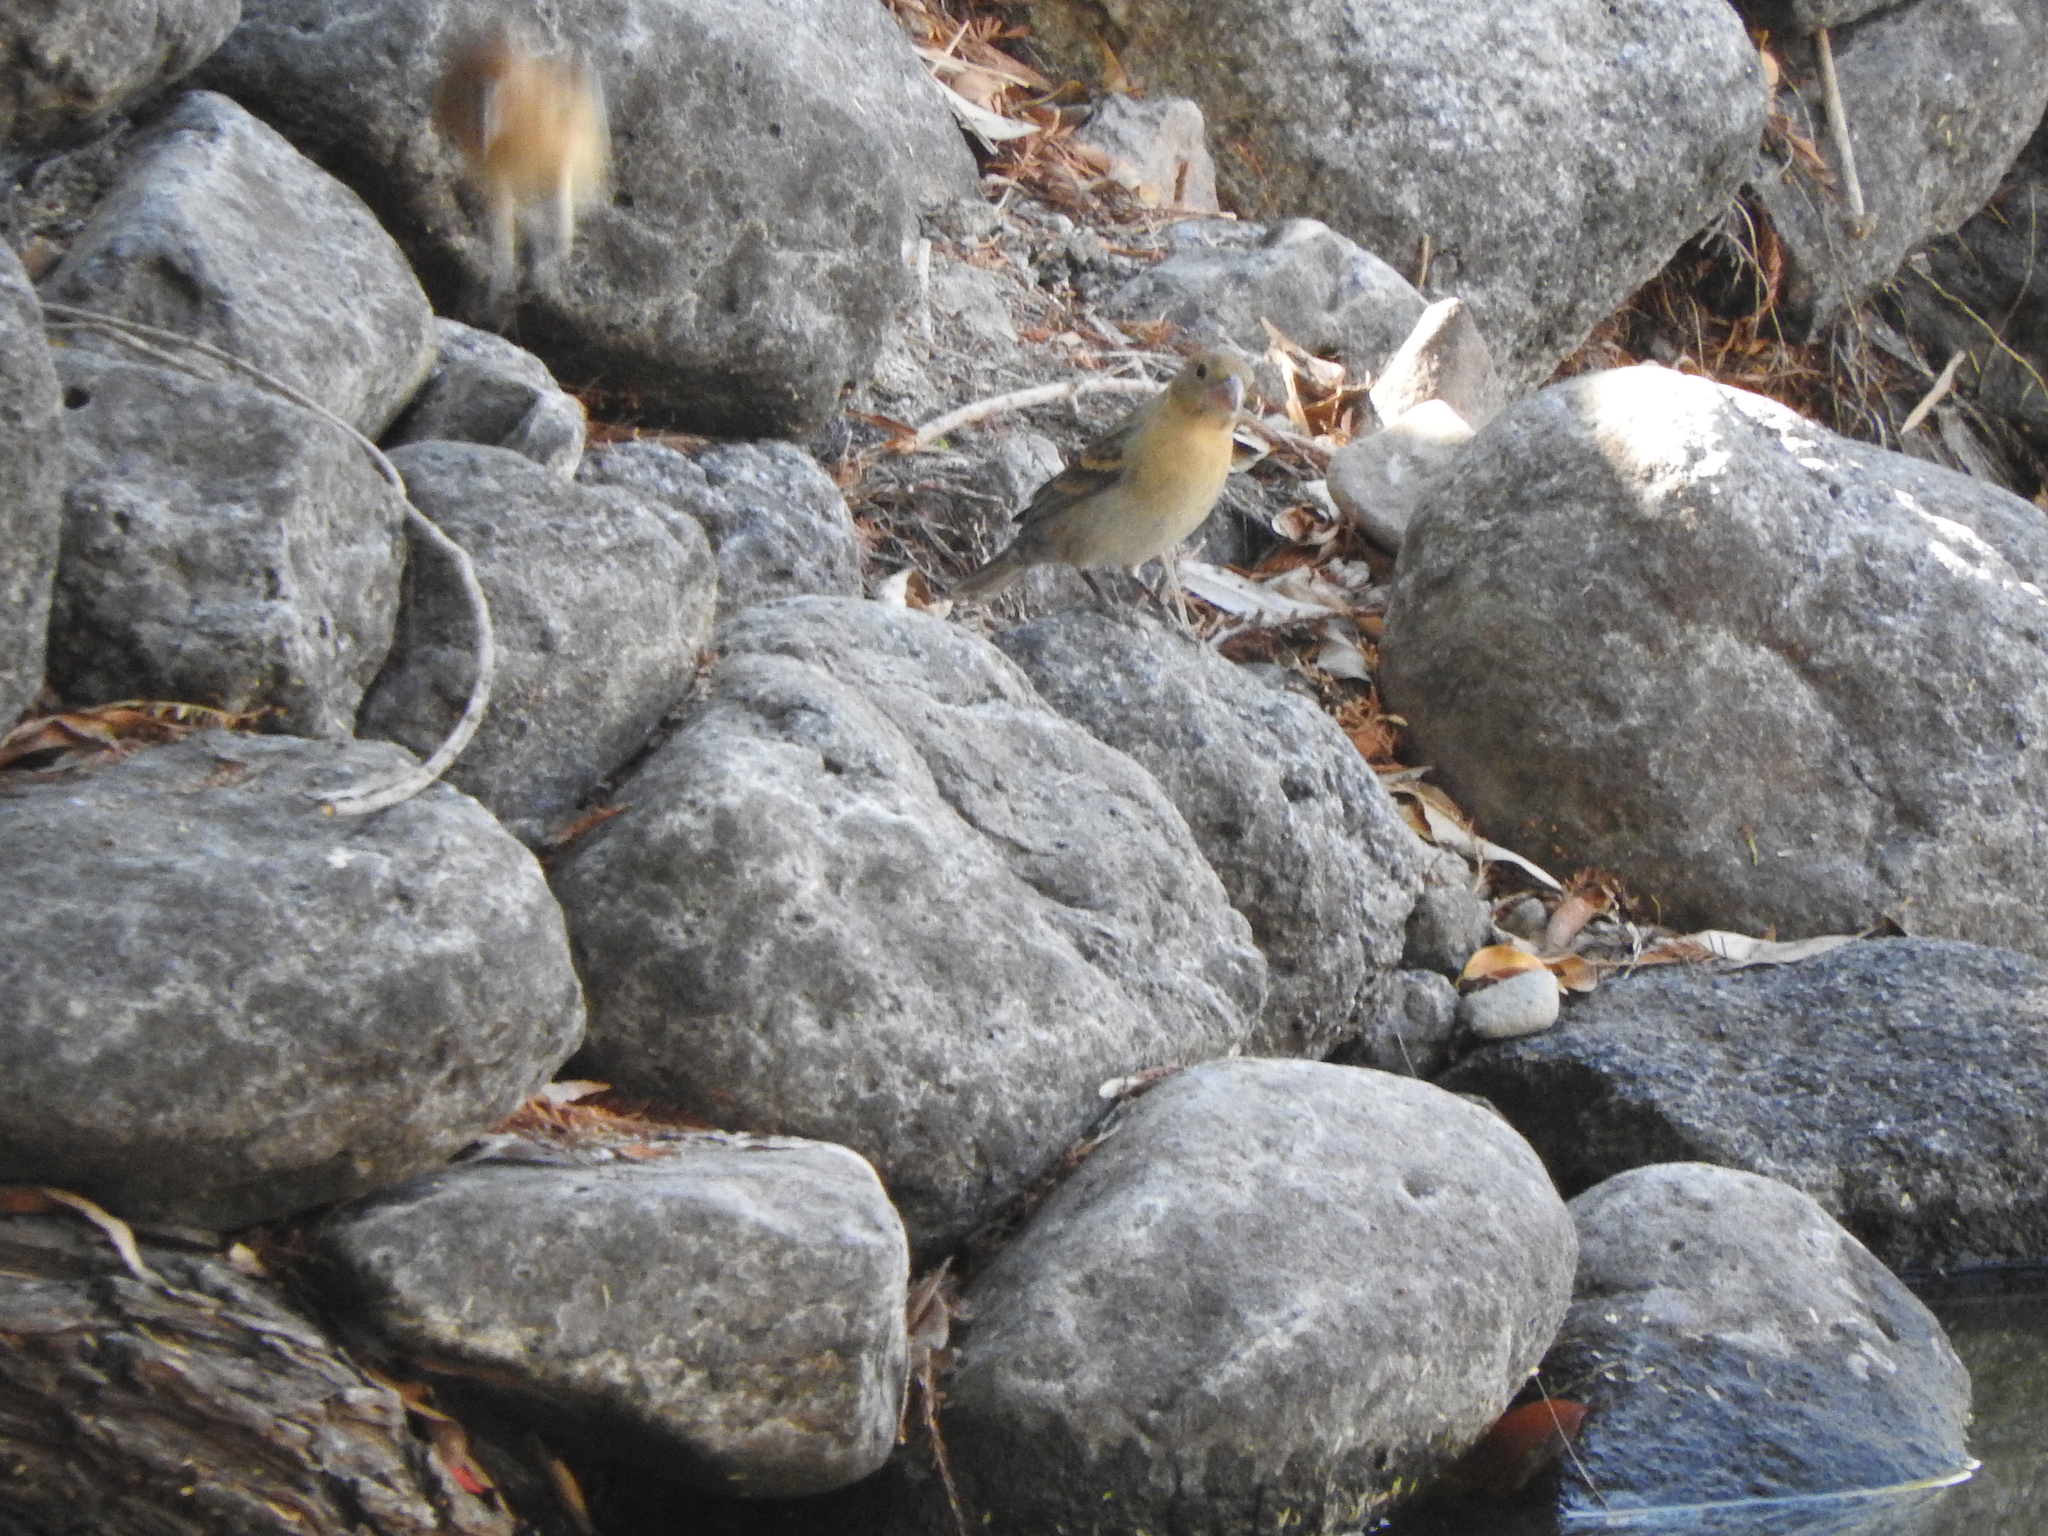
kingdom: Animalia
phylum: Chordata
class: Aves
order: Passeriformes
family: Cardinalidae
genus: Passerina
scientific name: Passerina caerulea
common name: Blue grosbeak
